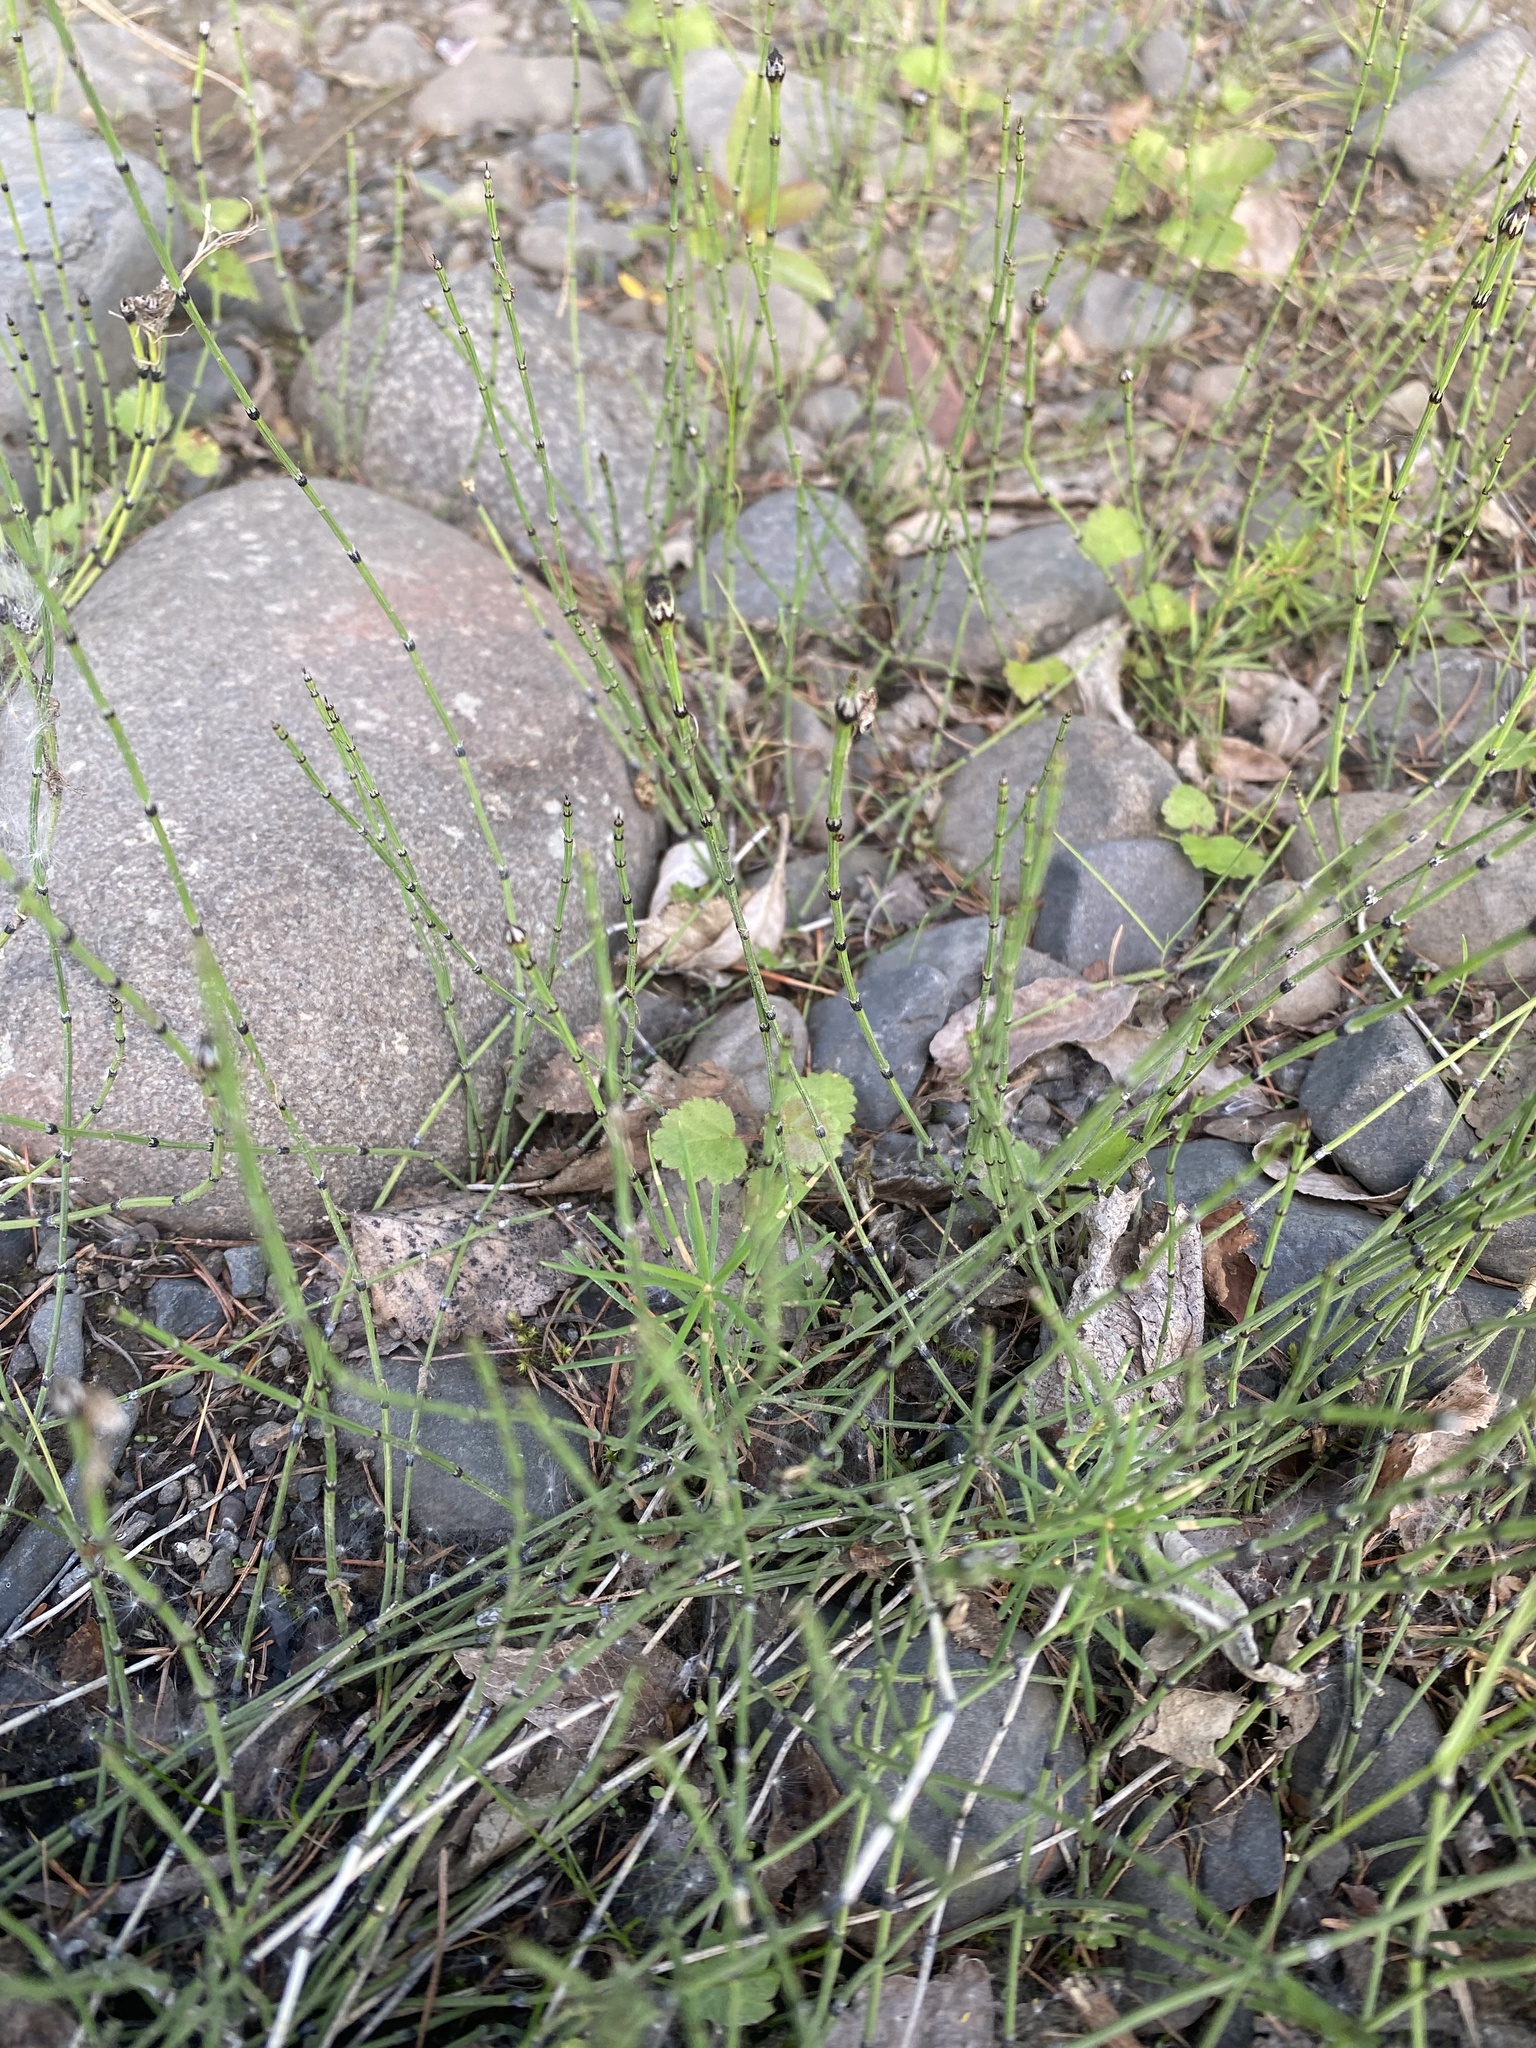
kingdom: Plantae
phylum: Tracheophyta
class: Polypodiopsida
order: Equisetales
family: Equisetaceae
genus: Equisetum
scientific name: Equisetum variegatum
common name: Variegated horsetail
